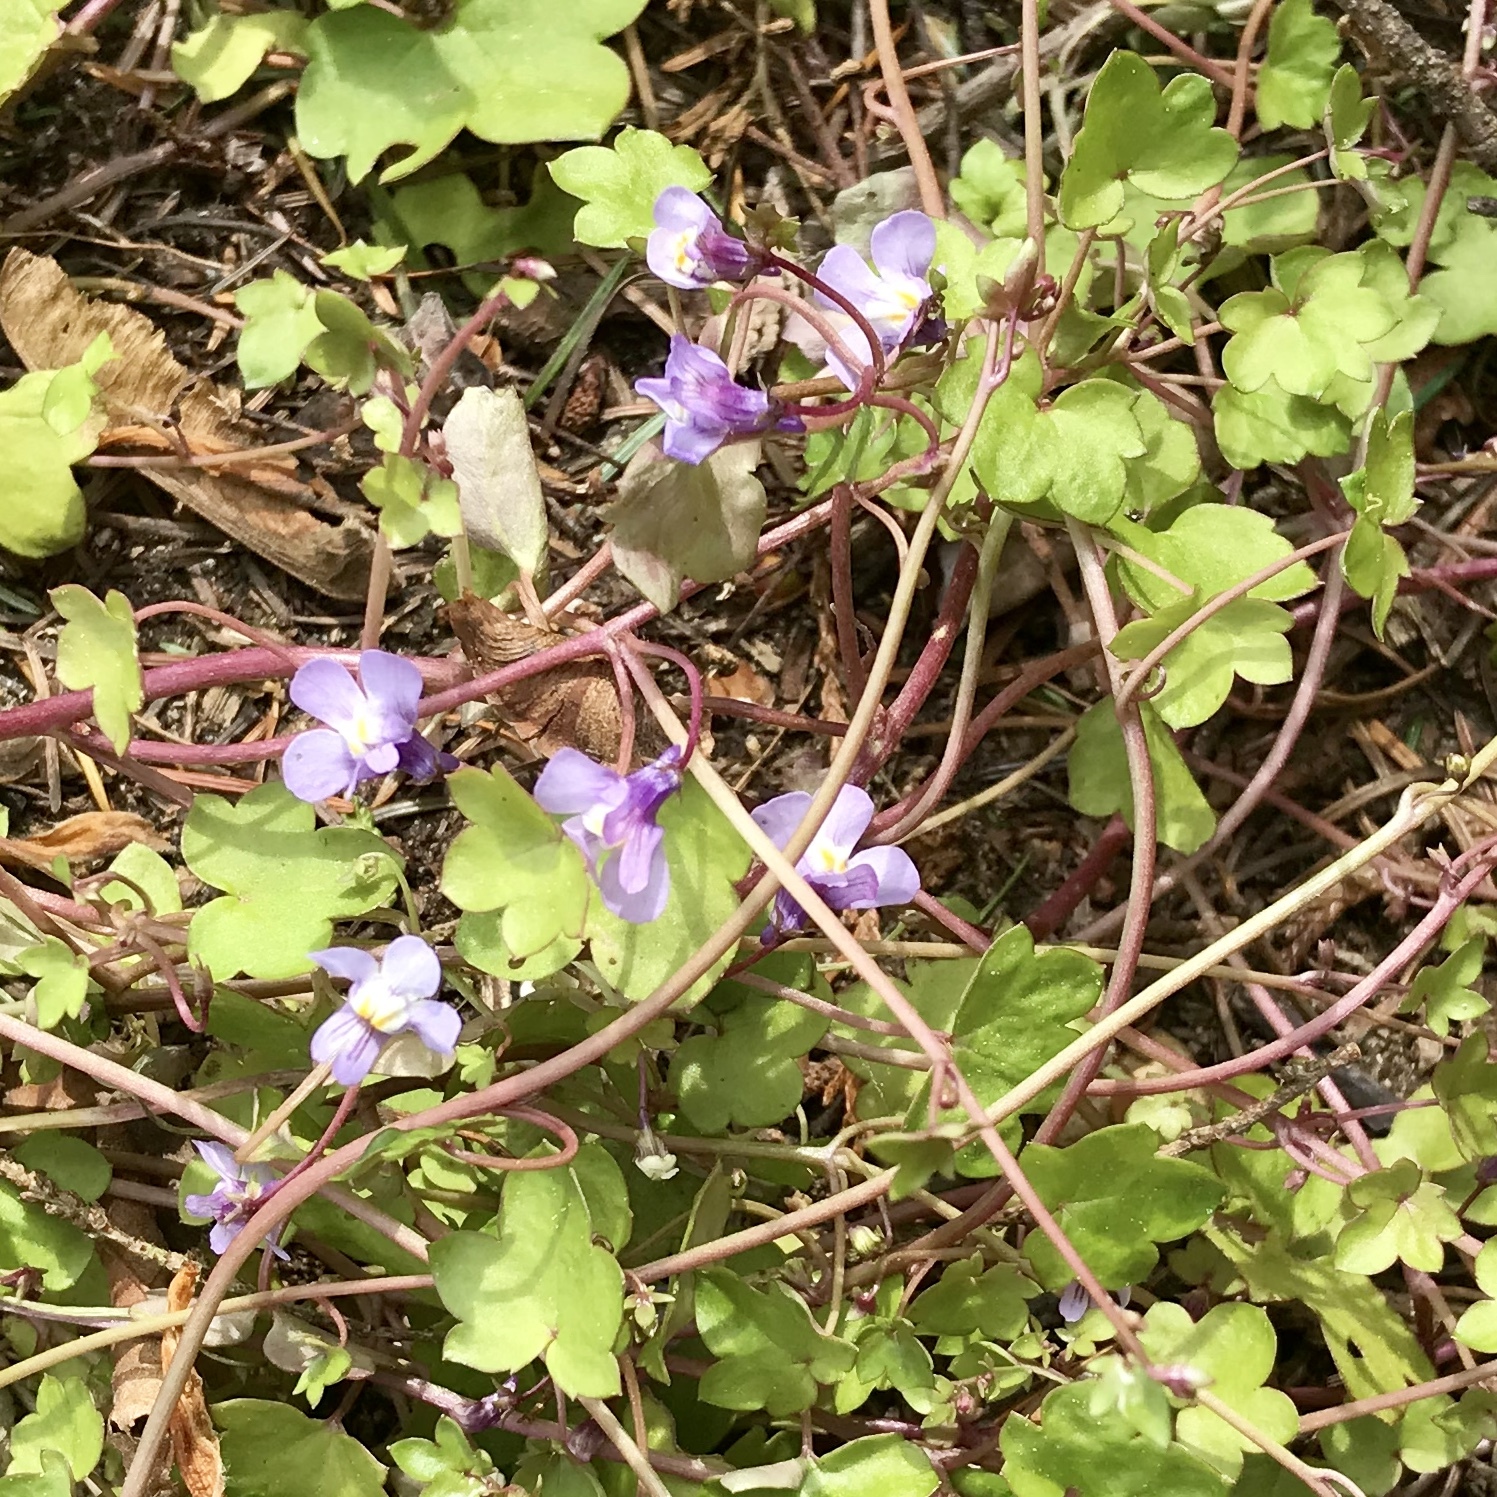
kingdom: Plantae
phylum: Tracheophyta
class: Magnoliopsida
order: Lamiales
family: Plantaginaceae
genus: Cymbalaria
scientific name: Cymbalaria muralis
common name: Ivy-leaved toadflax
